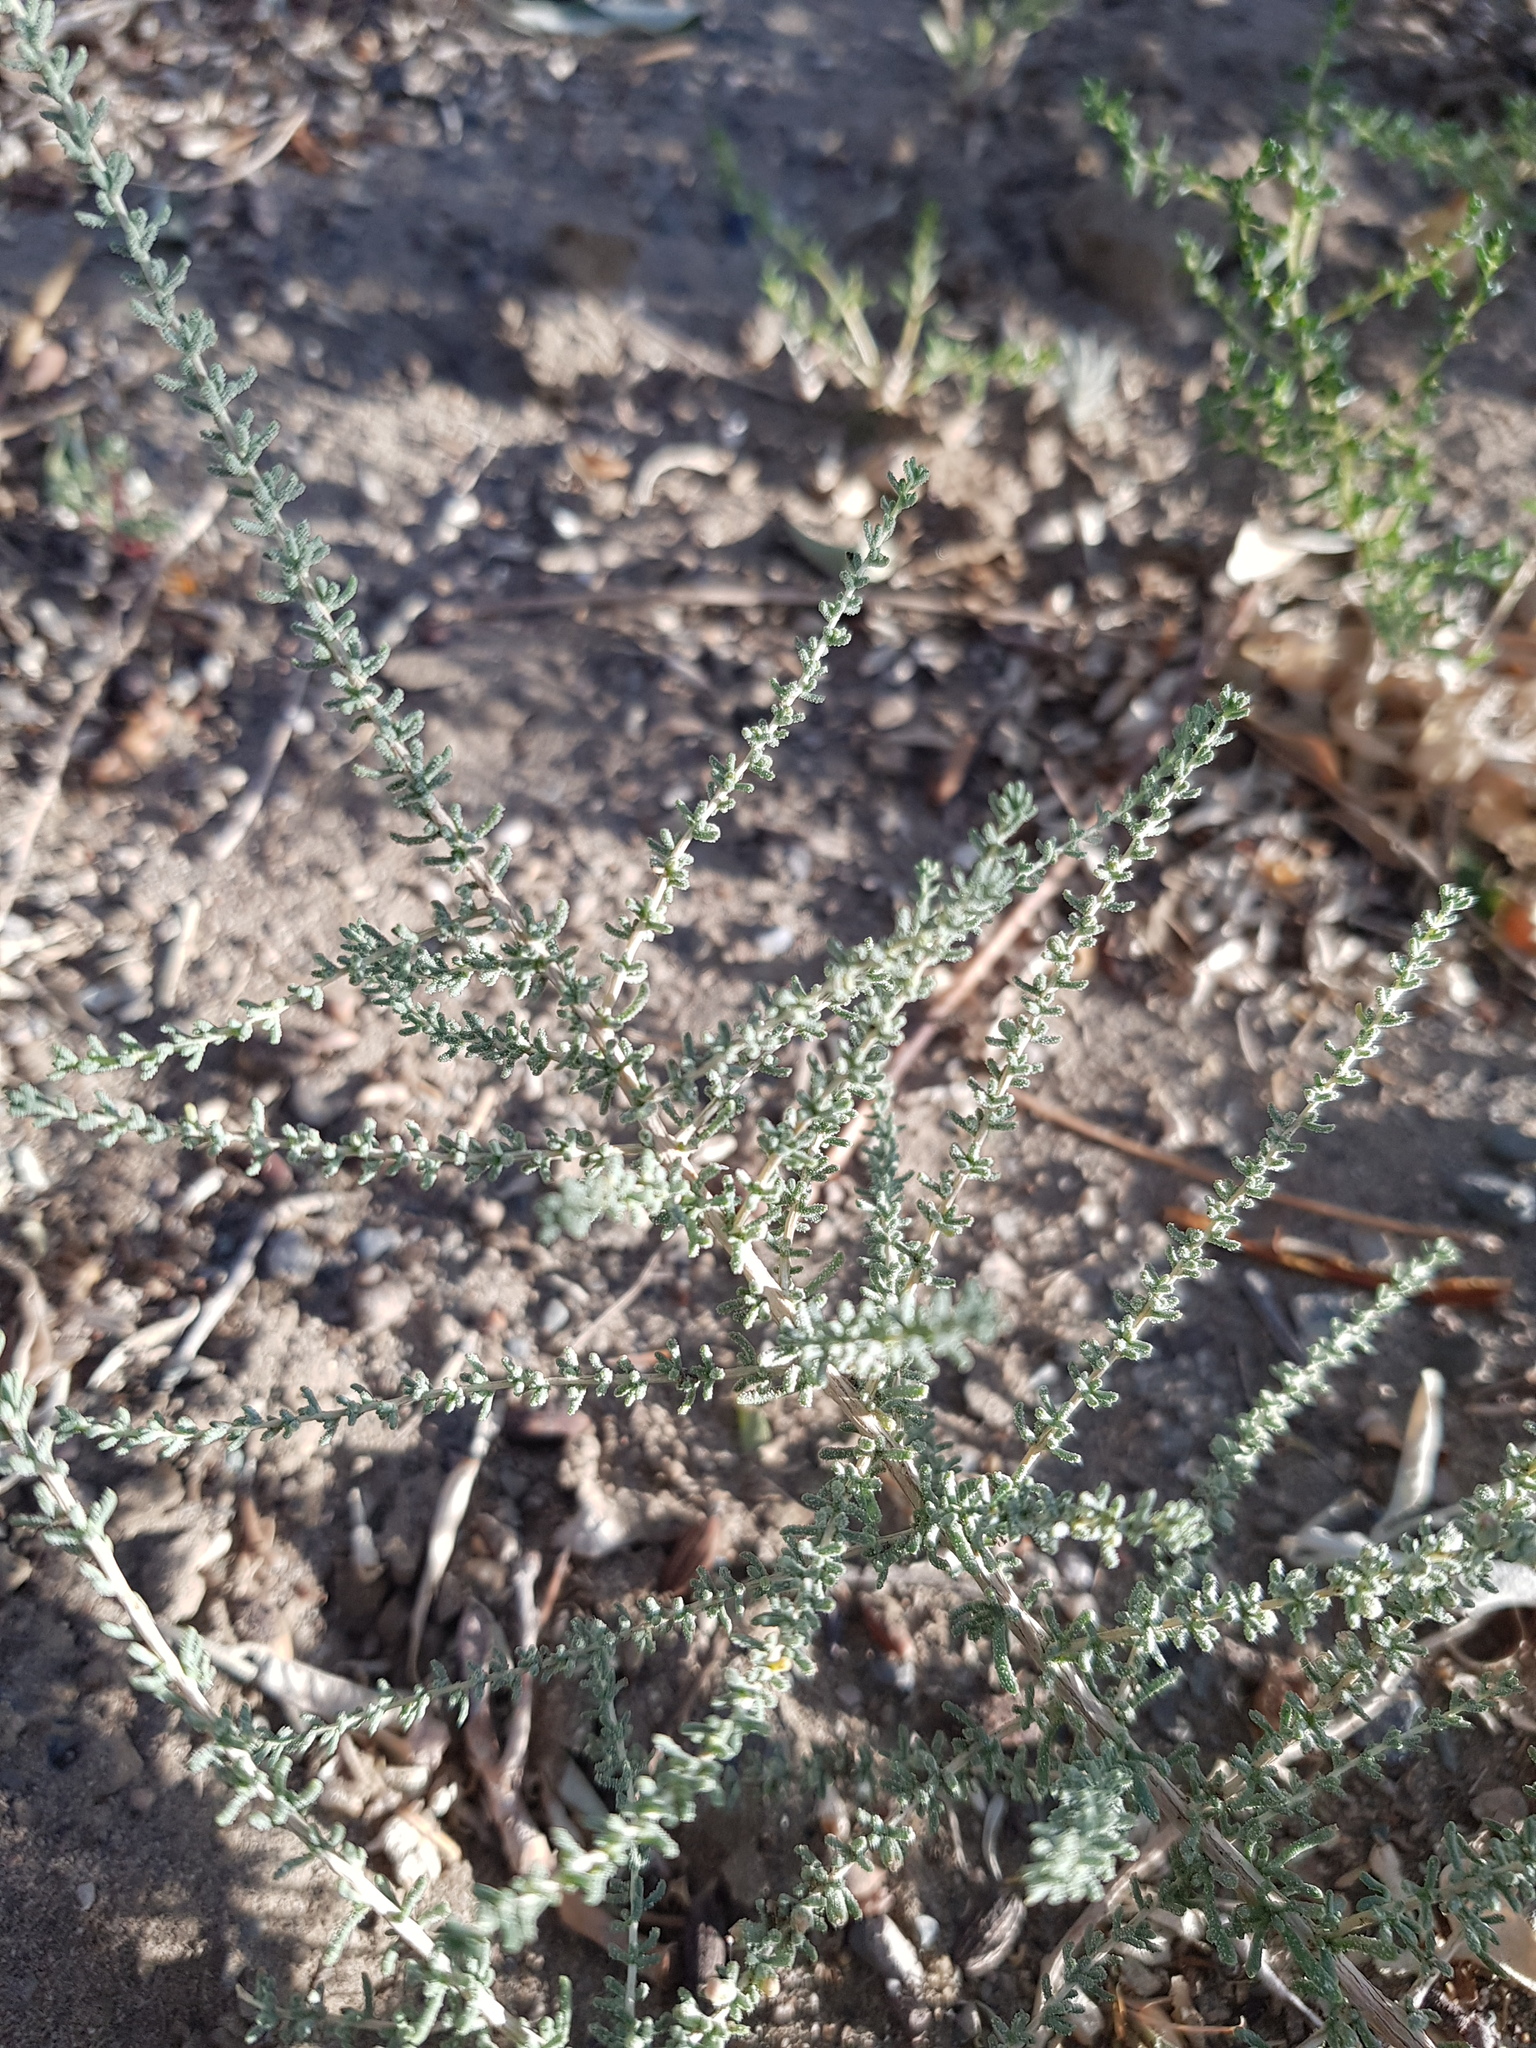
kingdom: Plantae
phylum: Tracheophyta
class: Magnoliopsida
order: Caryophyllales
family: Tamaricaceae
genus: Reaumuria
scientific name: Reaumuria songarica
